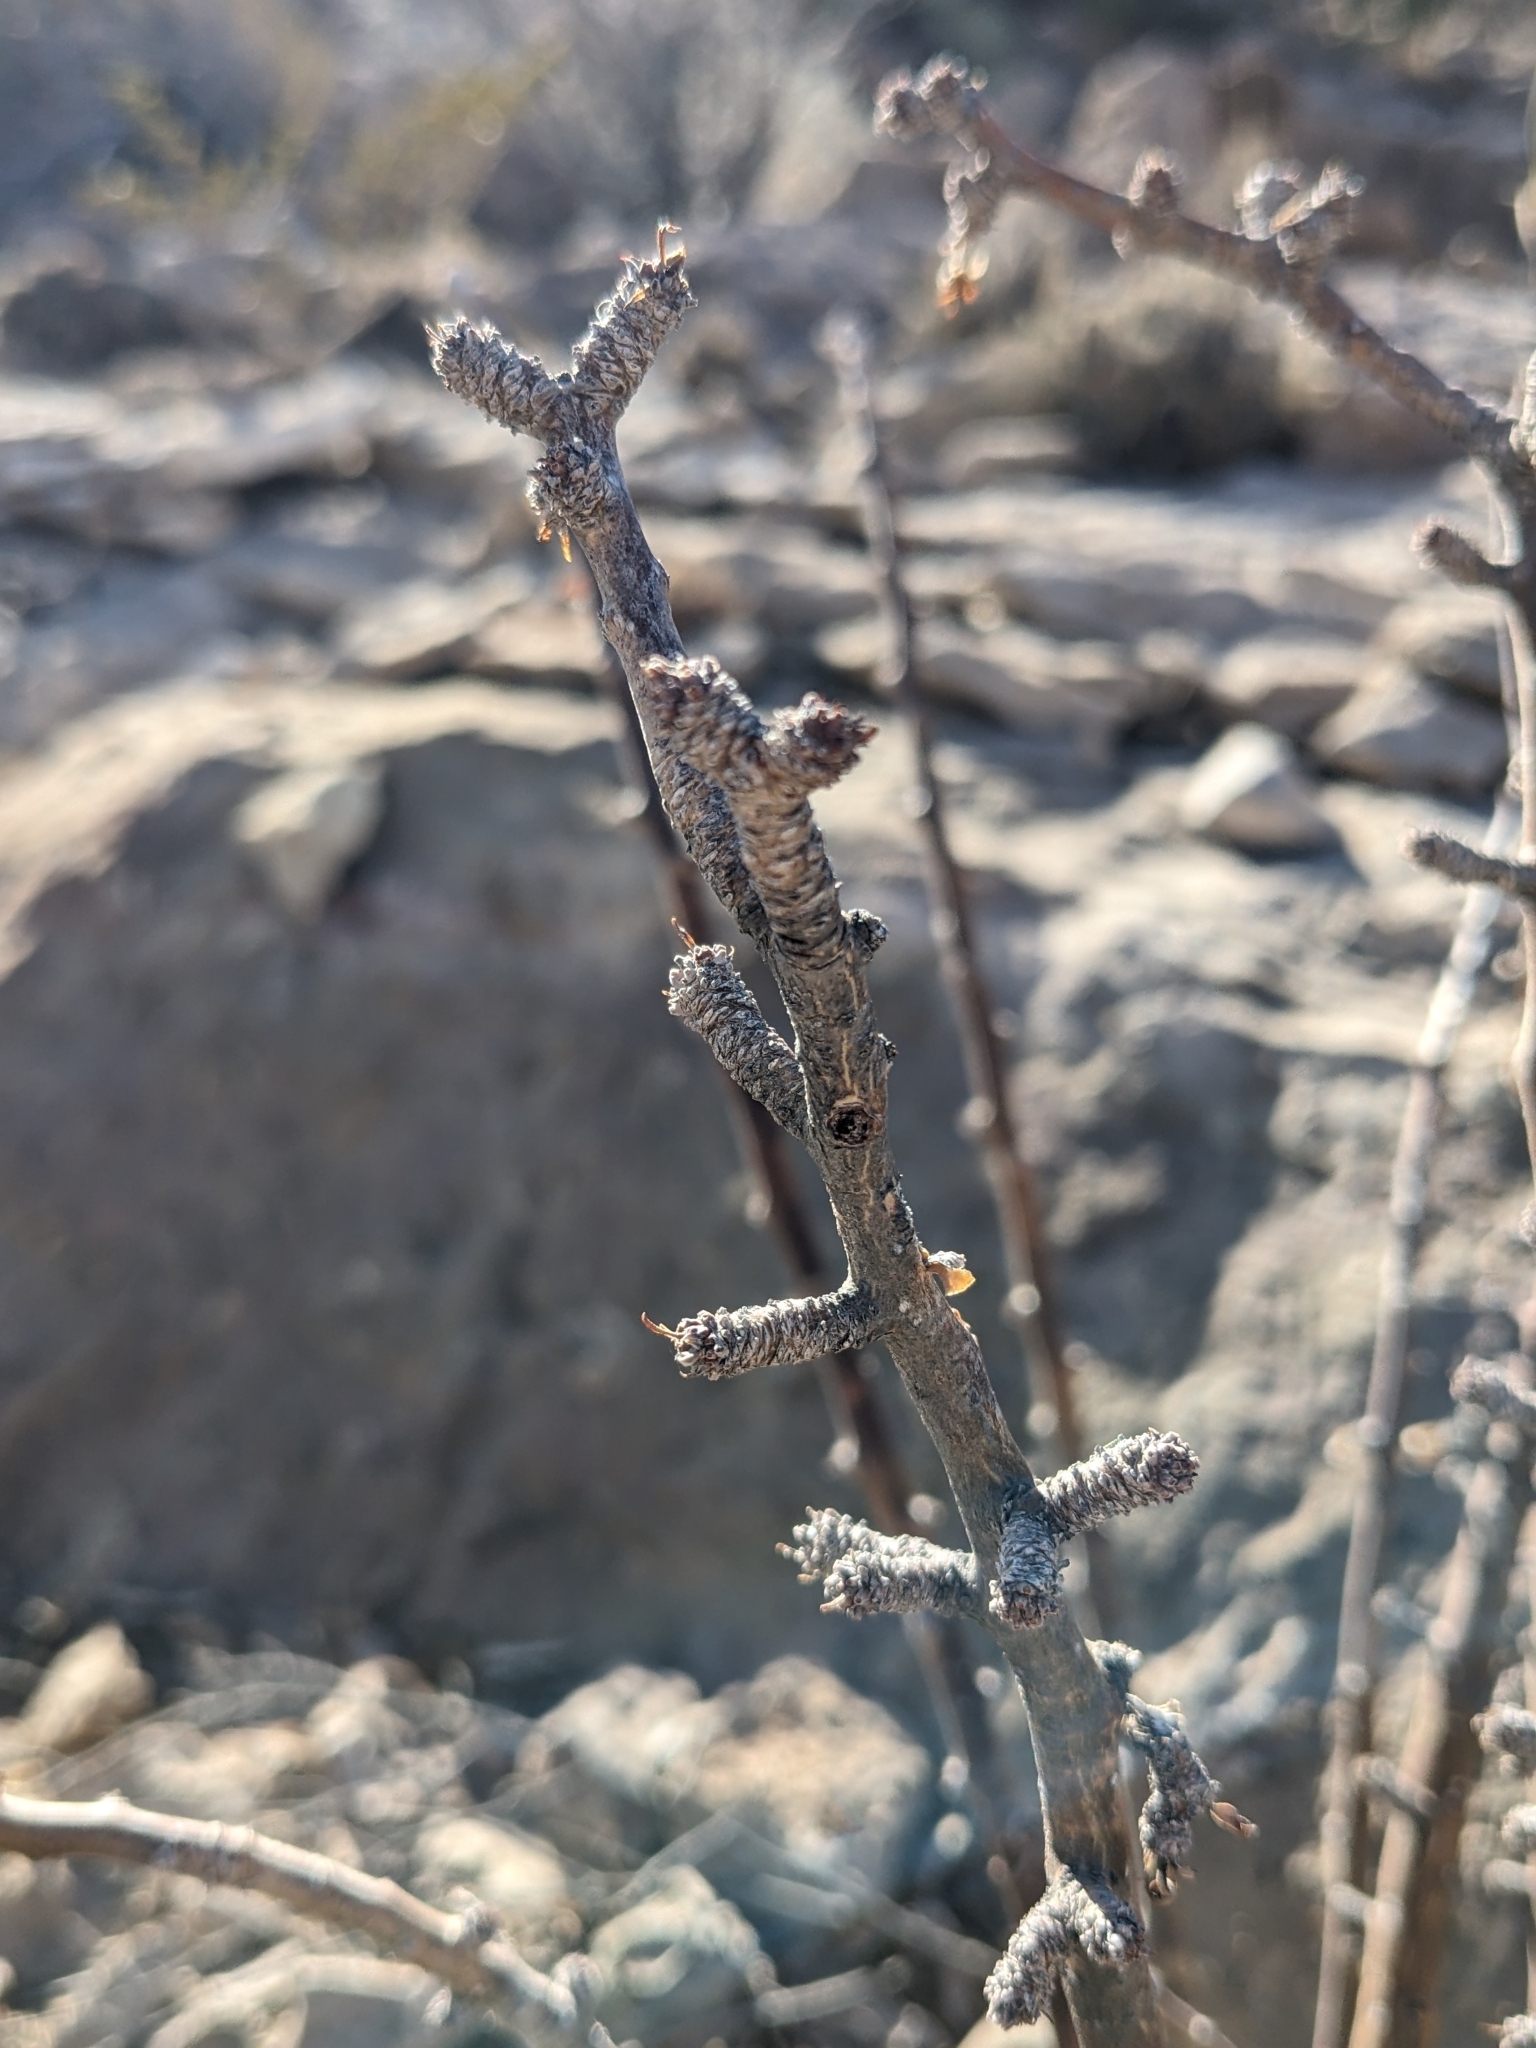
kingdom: Plantae
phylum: Tracheophyta
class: Magnoliopsida
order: Malpighiales
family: Euphorbiaceae
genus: Jatropha
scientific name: Jatropha dioica
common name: Leatherstem
